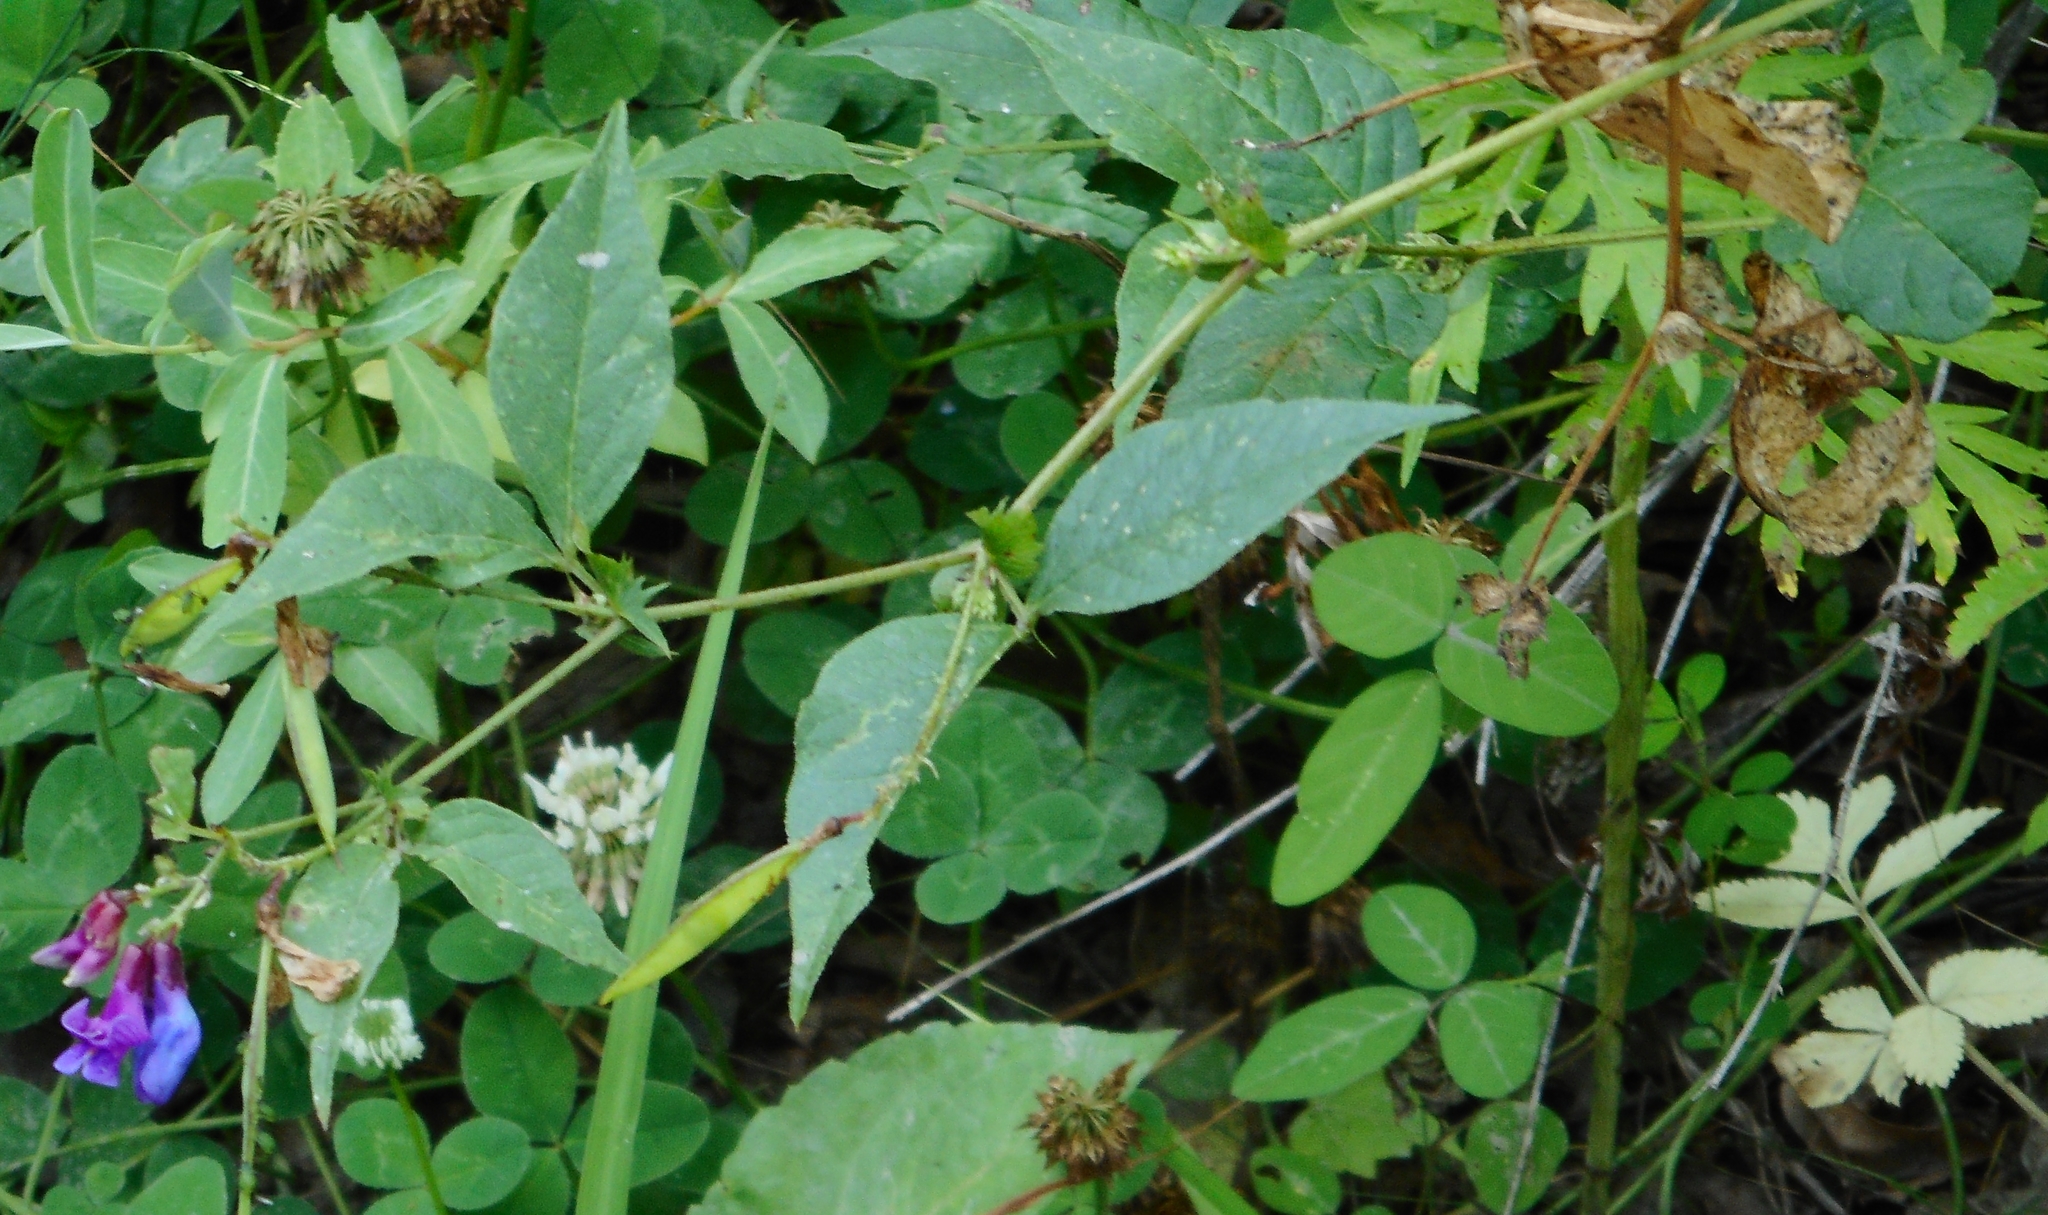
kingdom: Plantae
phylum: Tracheophyta
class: Magnoliopsida
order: Fabales
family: Fabaceae
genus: Vicia
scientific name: Vicia unijuga
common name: Two-leaf vetch
